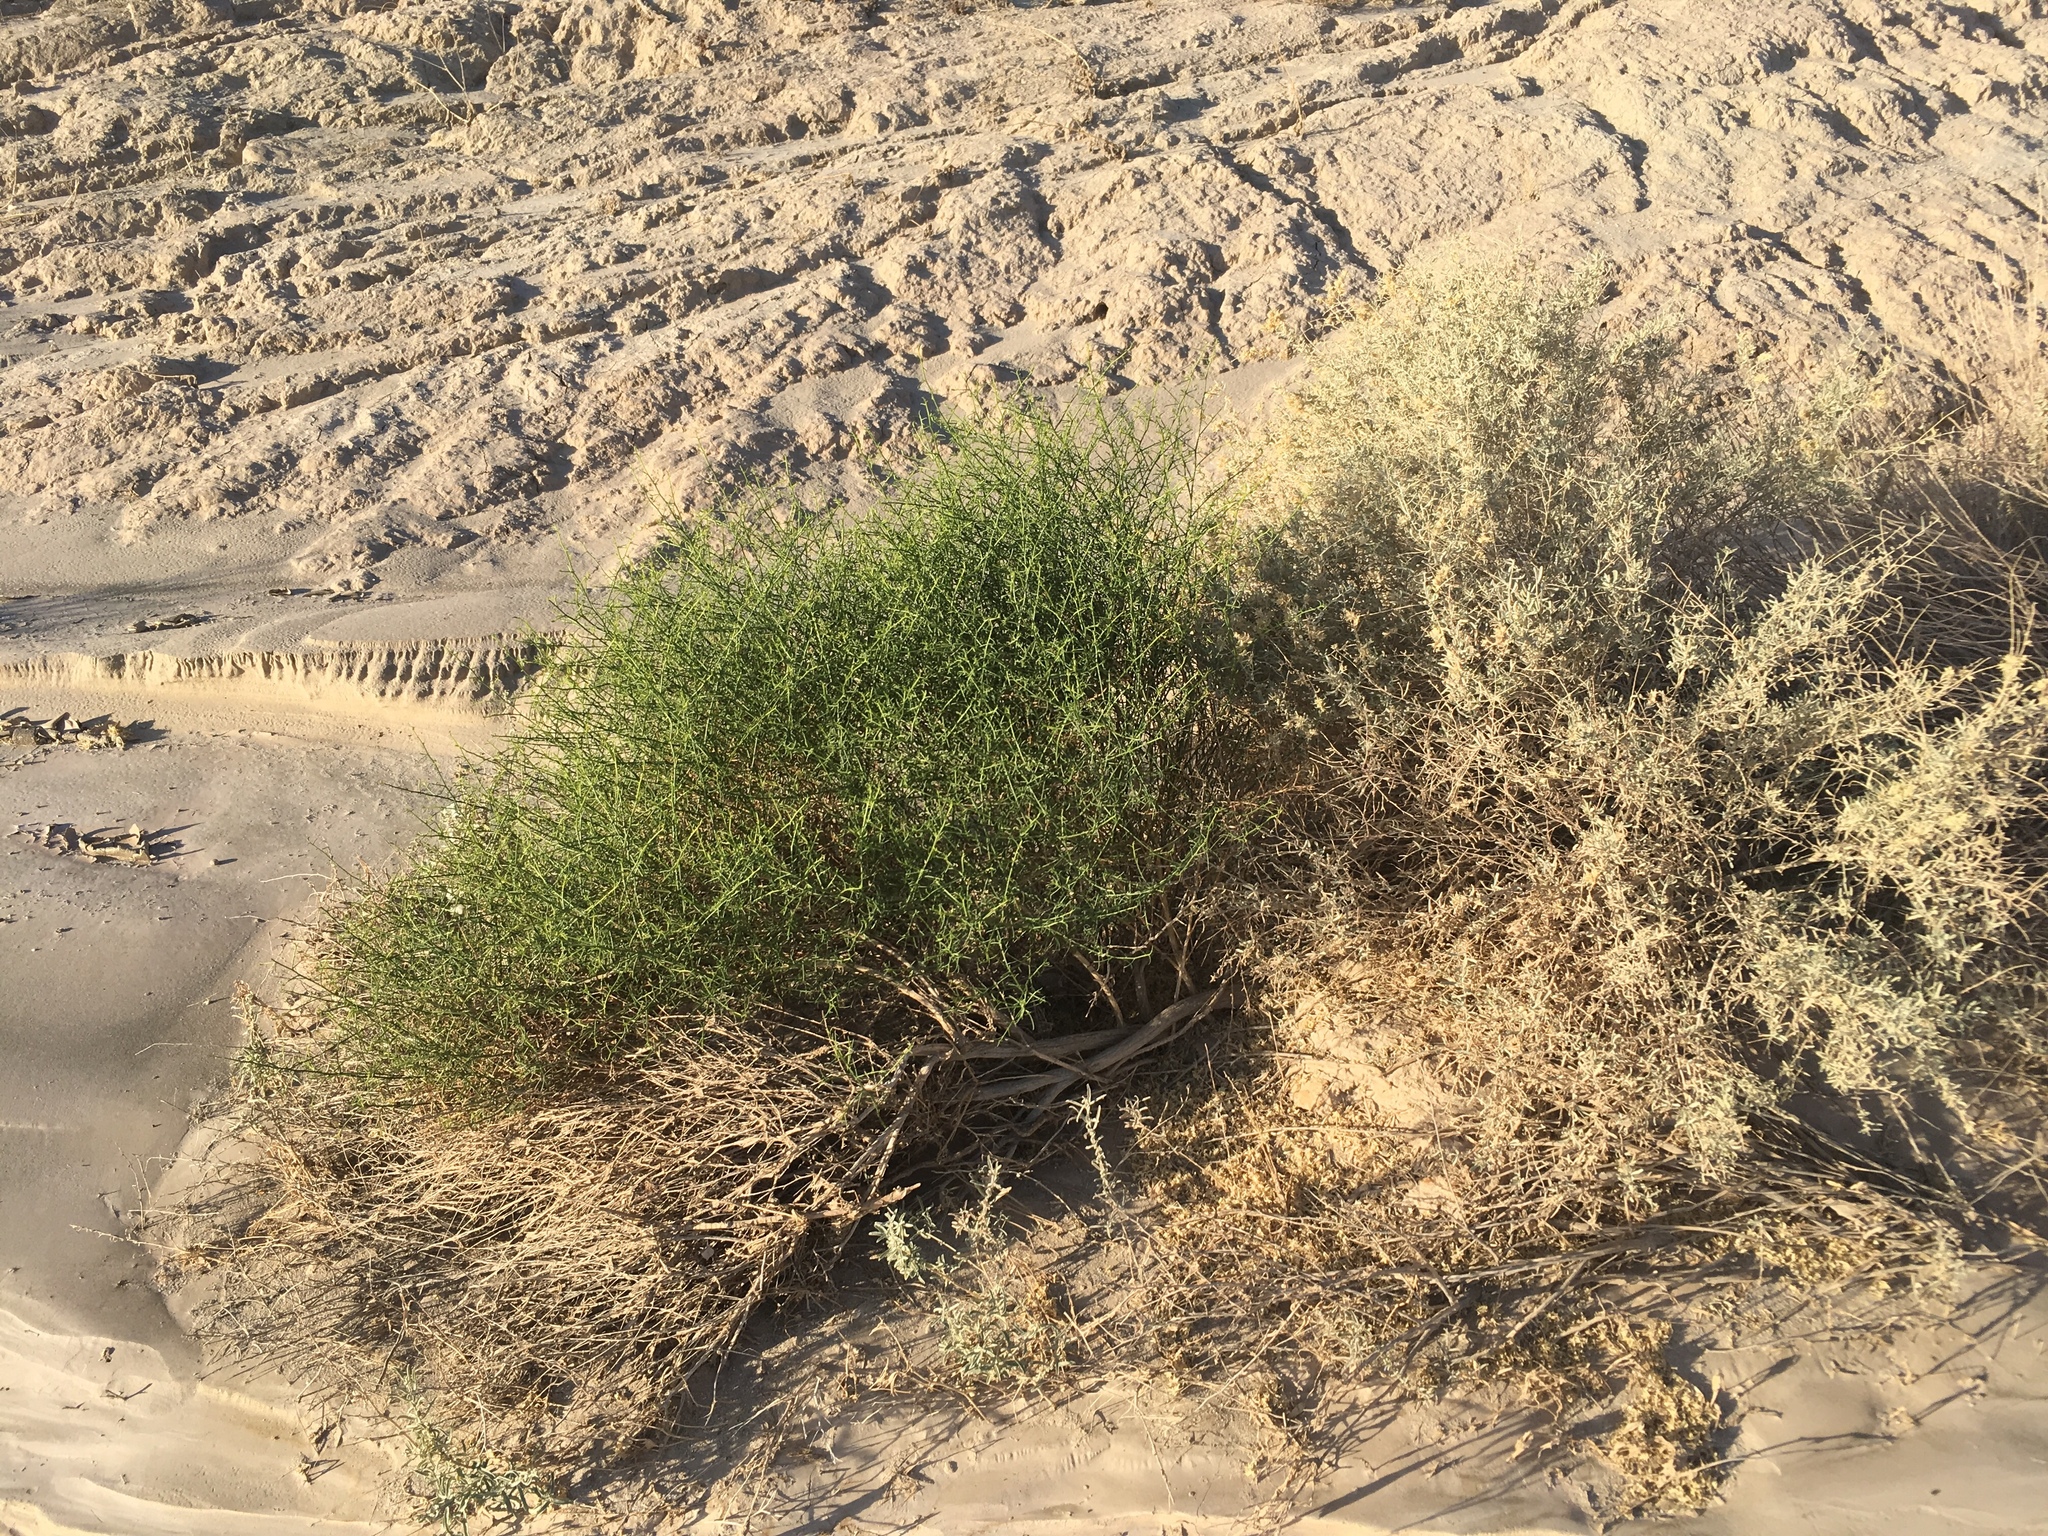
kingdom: Plantae
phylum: Tracheophyta
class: Magnoliopsida
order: Asterales
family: Asteraceae
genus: Ambrosia
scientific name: Ambrosia salsola
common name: Burrobrush
